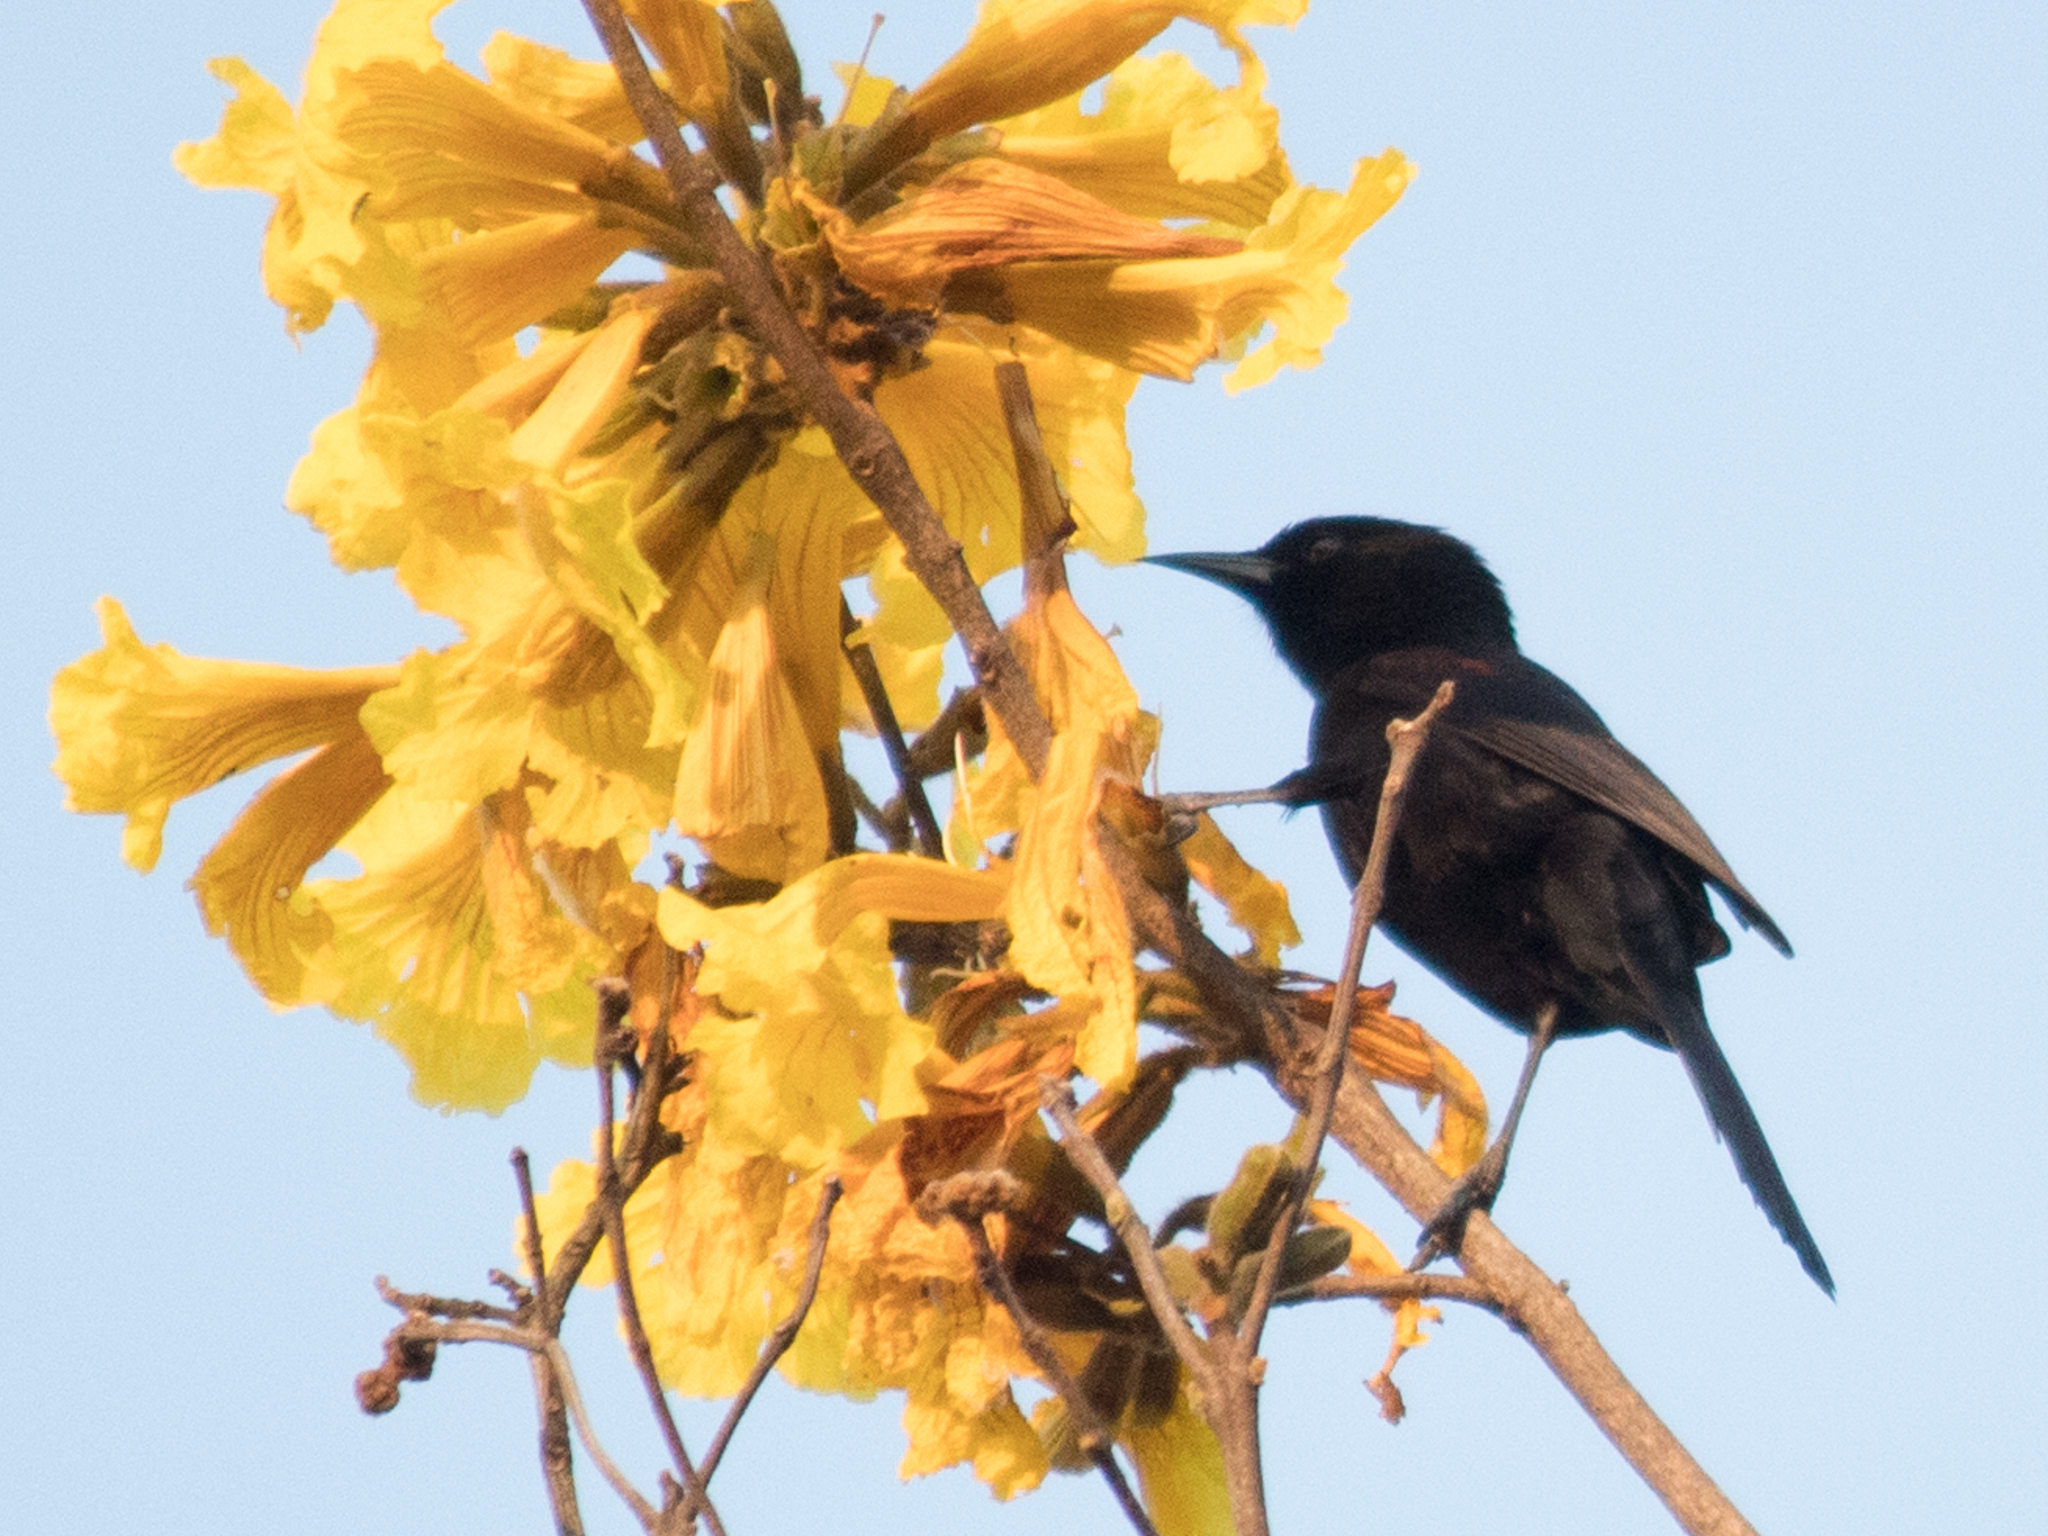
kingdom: Animalia
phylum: Chordata
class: Aves
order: Passeriformes
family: Icteridae
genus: Icterus
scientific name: Icterus cayanensis
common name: Epaulet oriole
